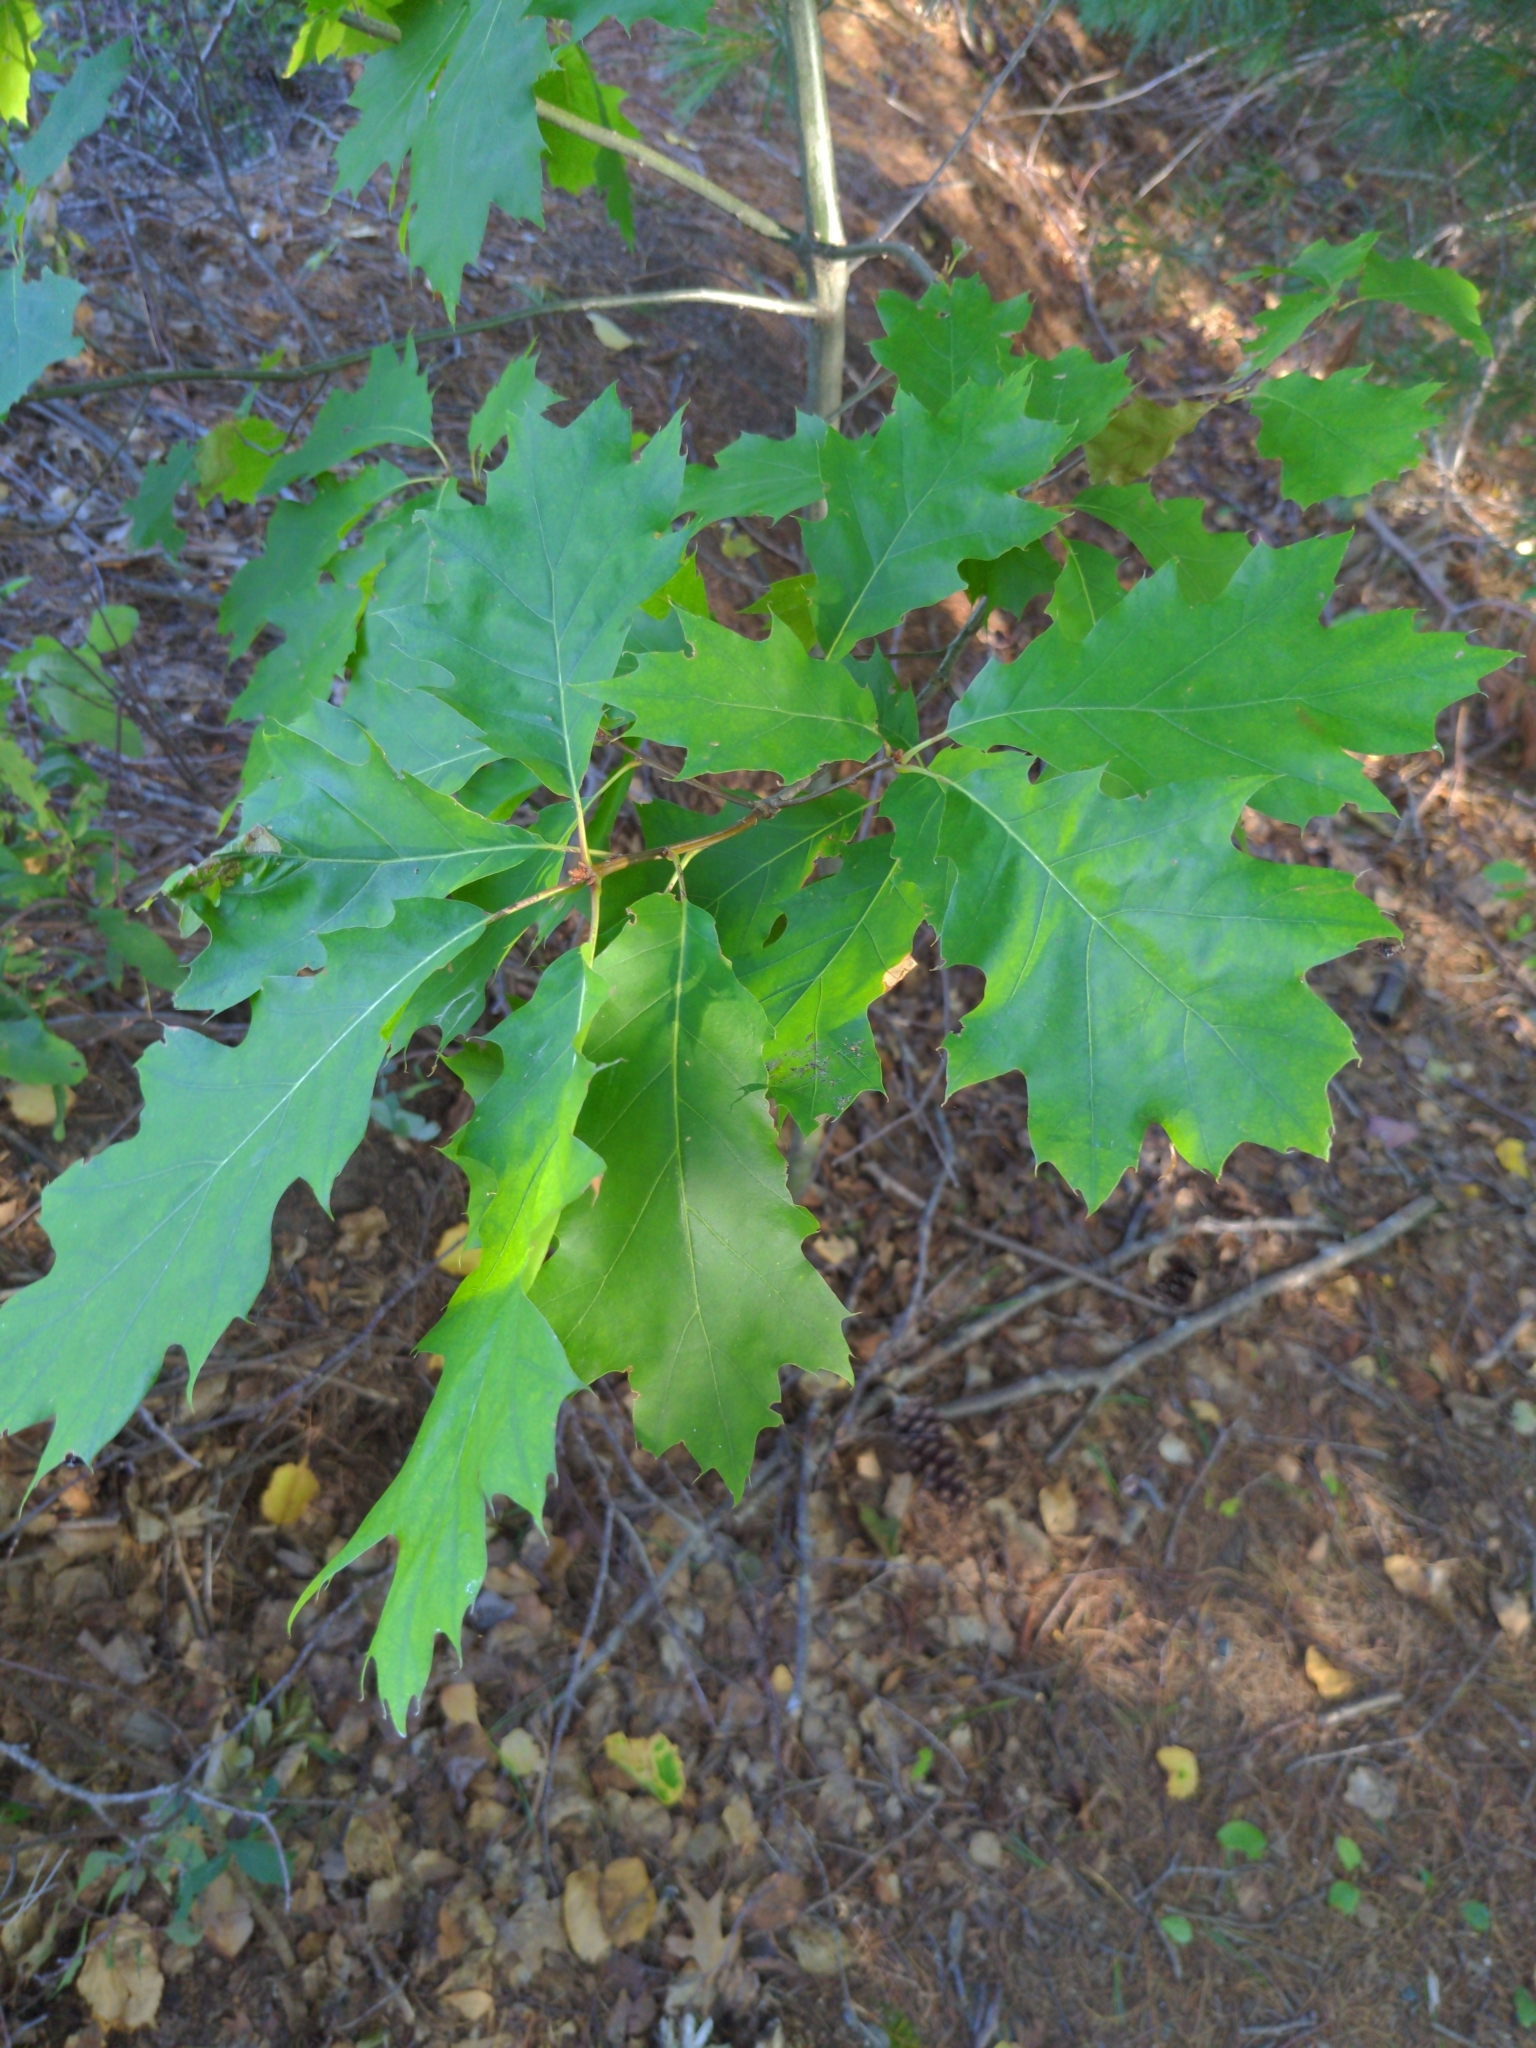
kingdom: Plantae
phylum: Tracheophyta
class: Magnoliopsida
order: Fagales
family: Fagaceae
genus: Quercus
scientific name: Quercus rubra
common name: Red oak
